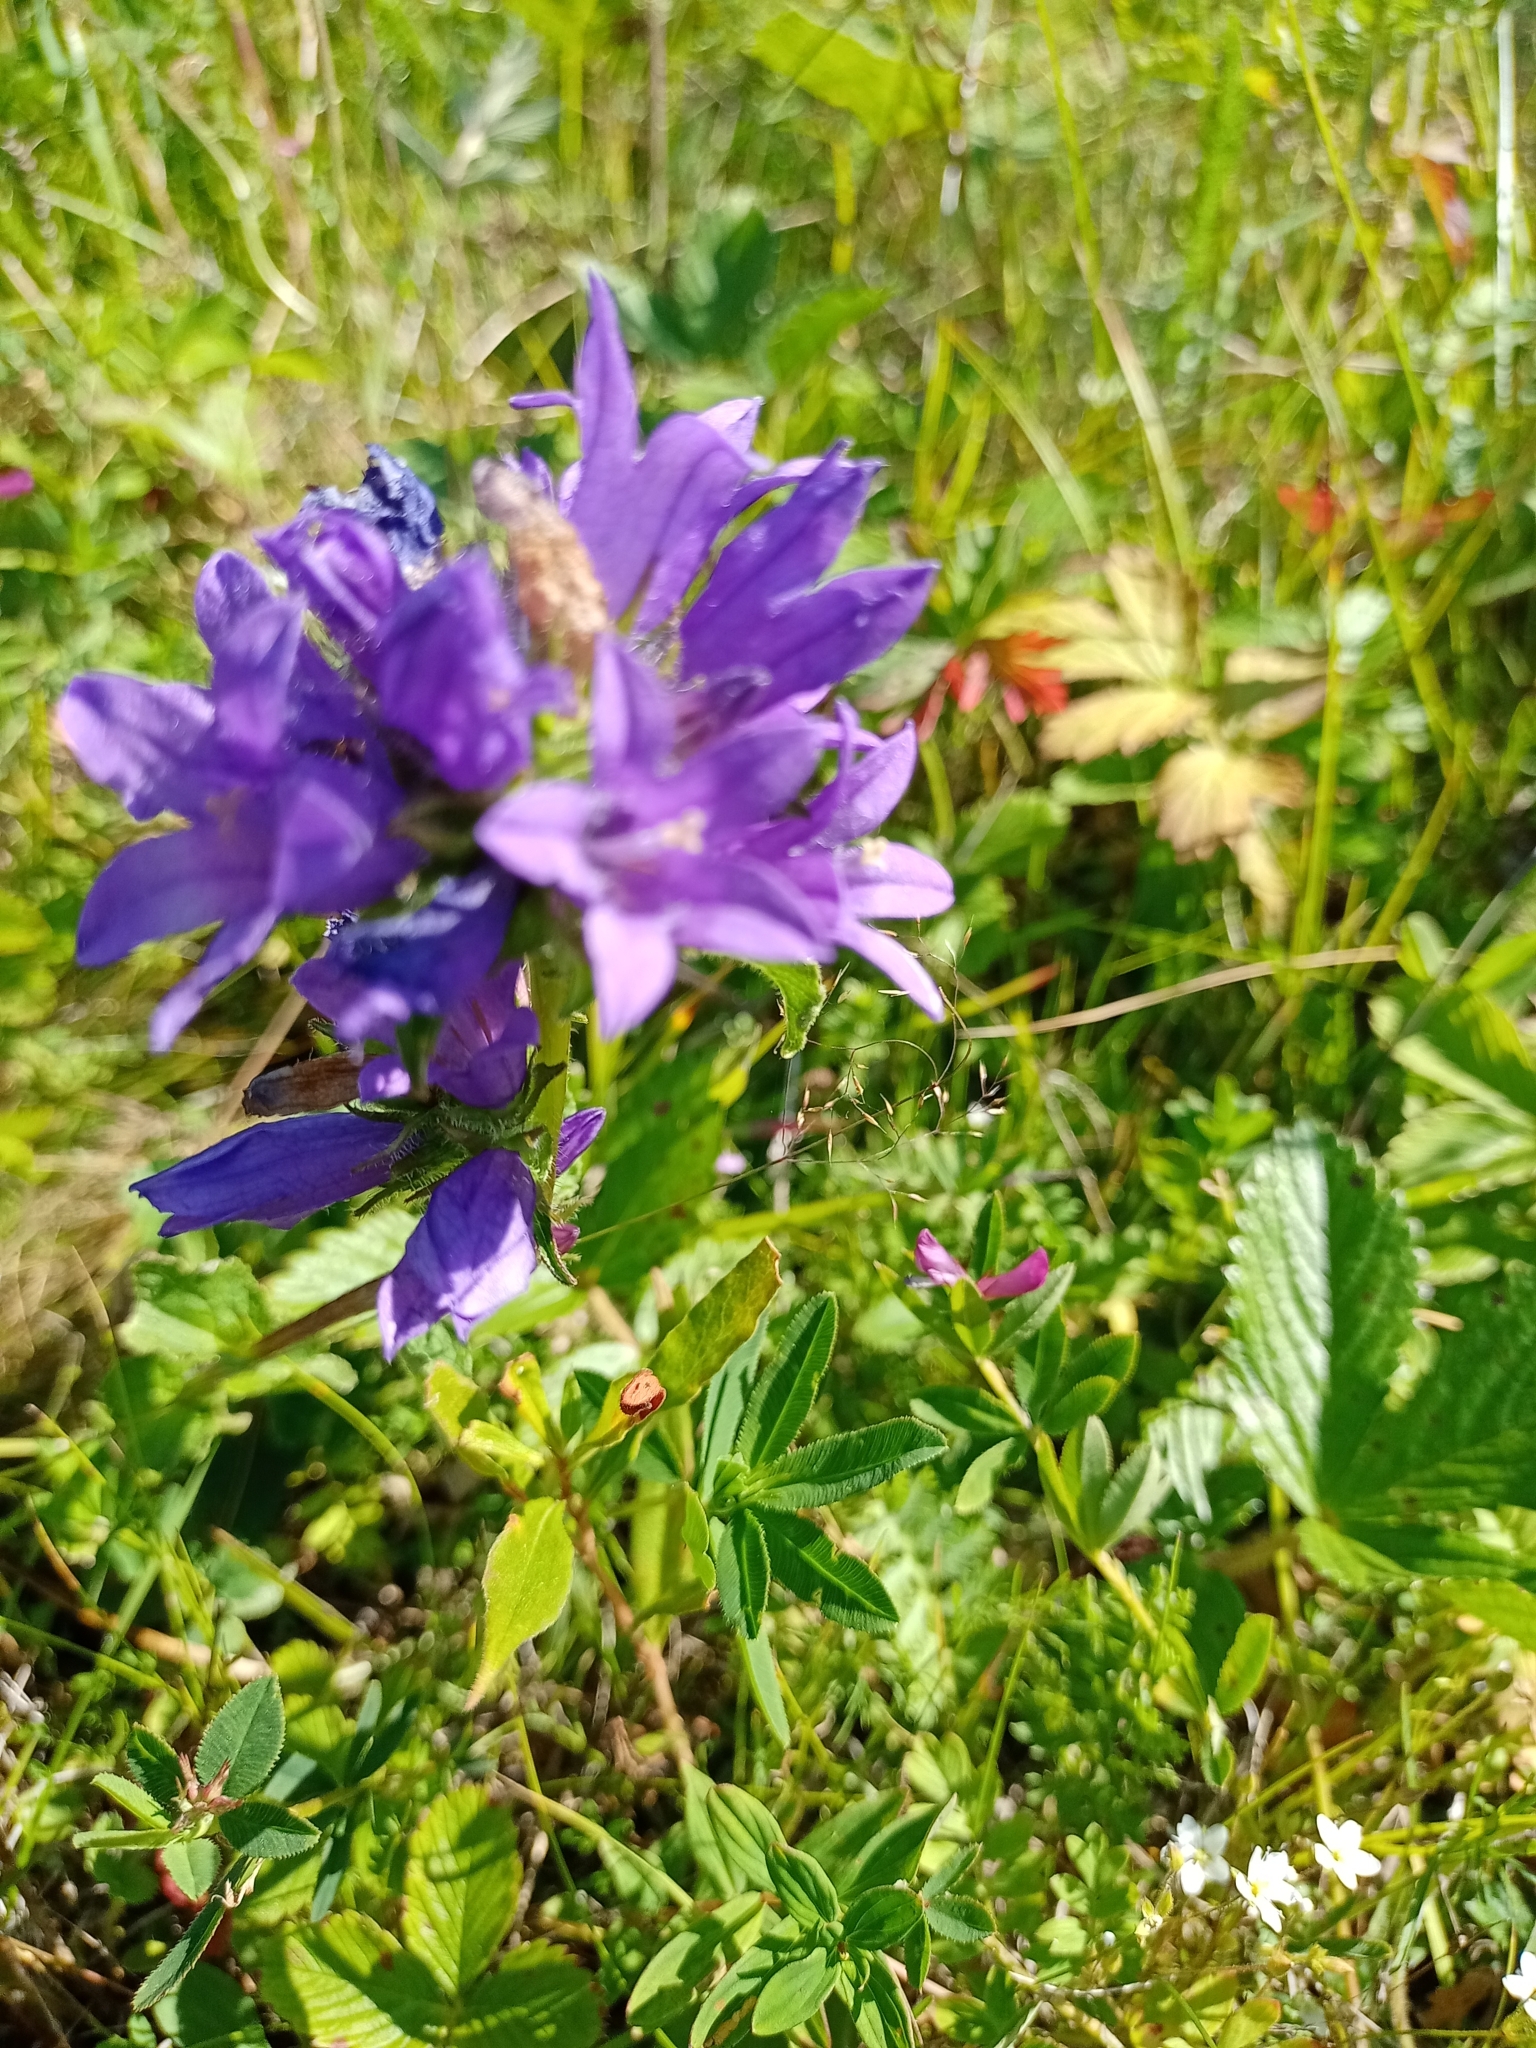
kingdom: Plantae
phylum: Tracheophyta
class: Magnoliopsida
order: Asterales
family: Campanulaceae
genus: Campanula
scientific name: Campanula glomerata
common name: Clustered bellflower
